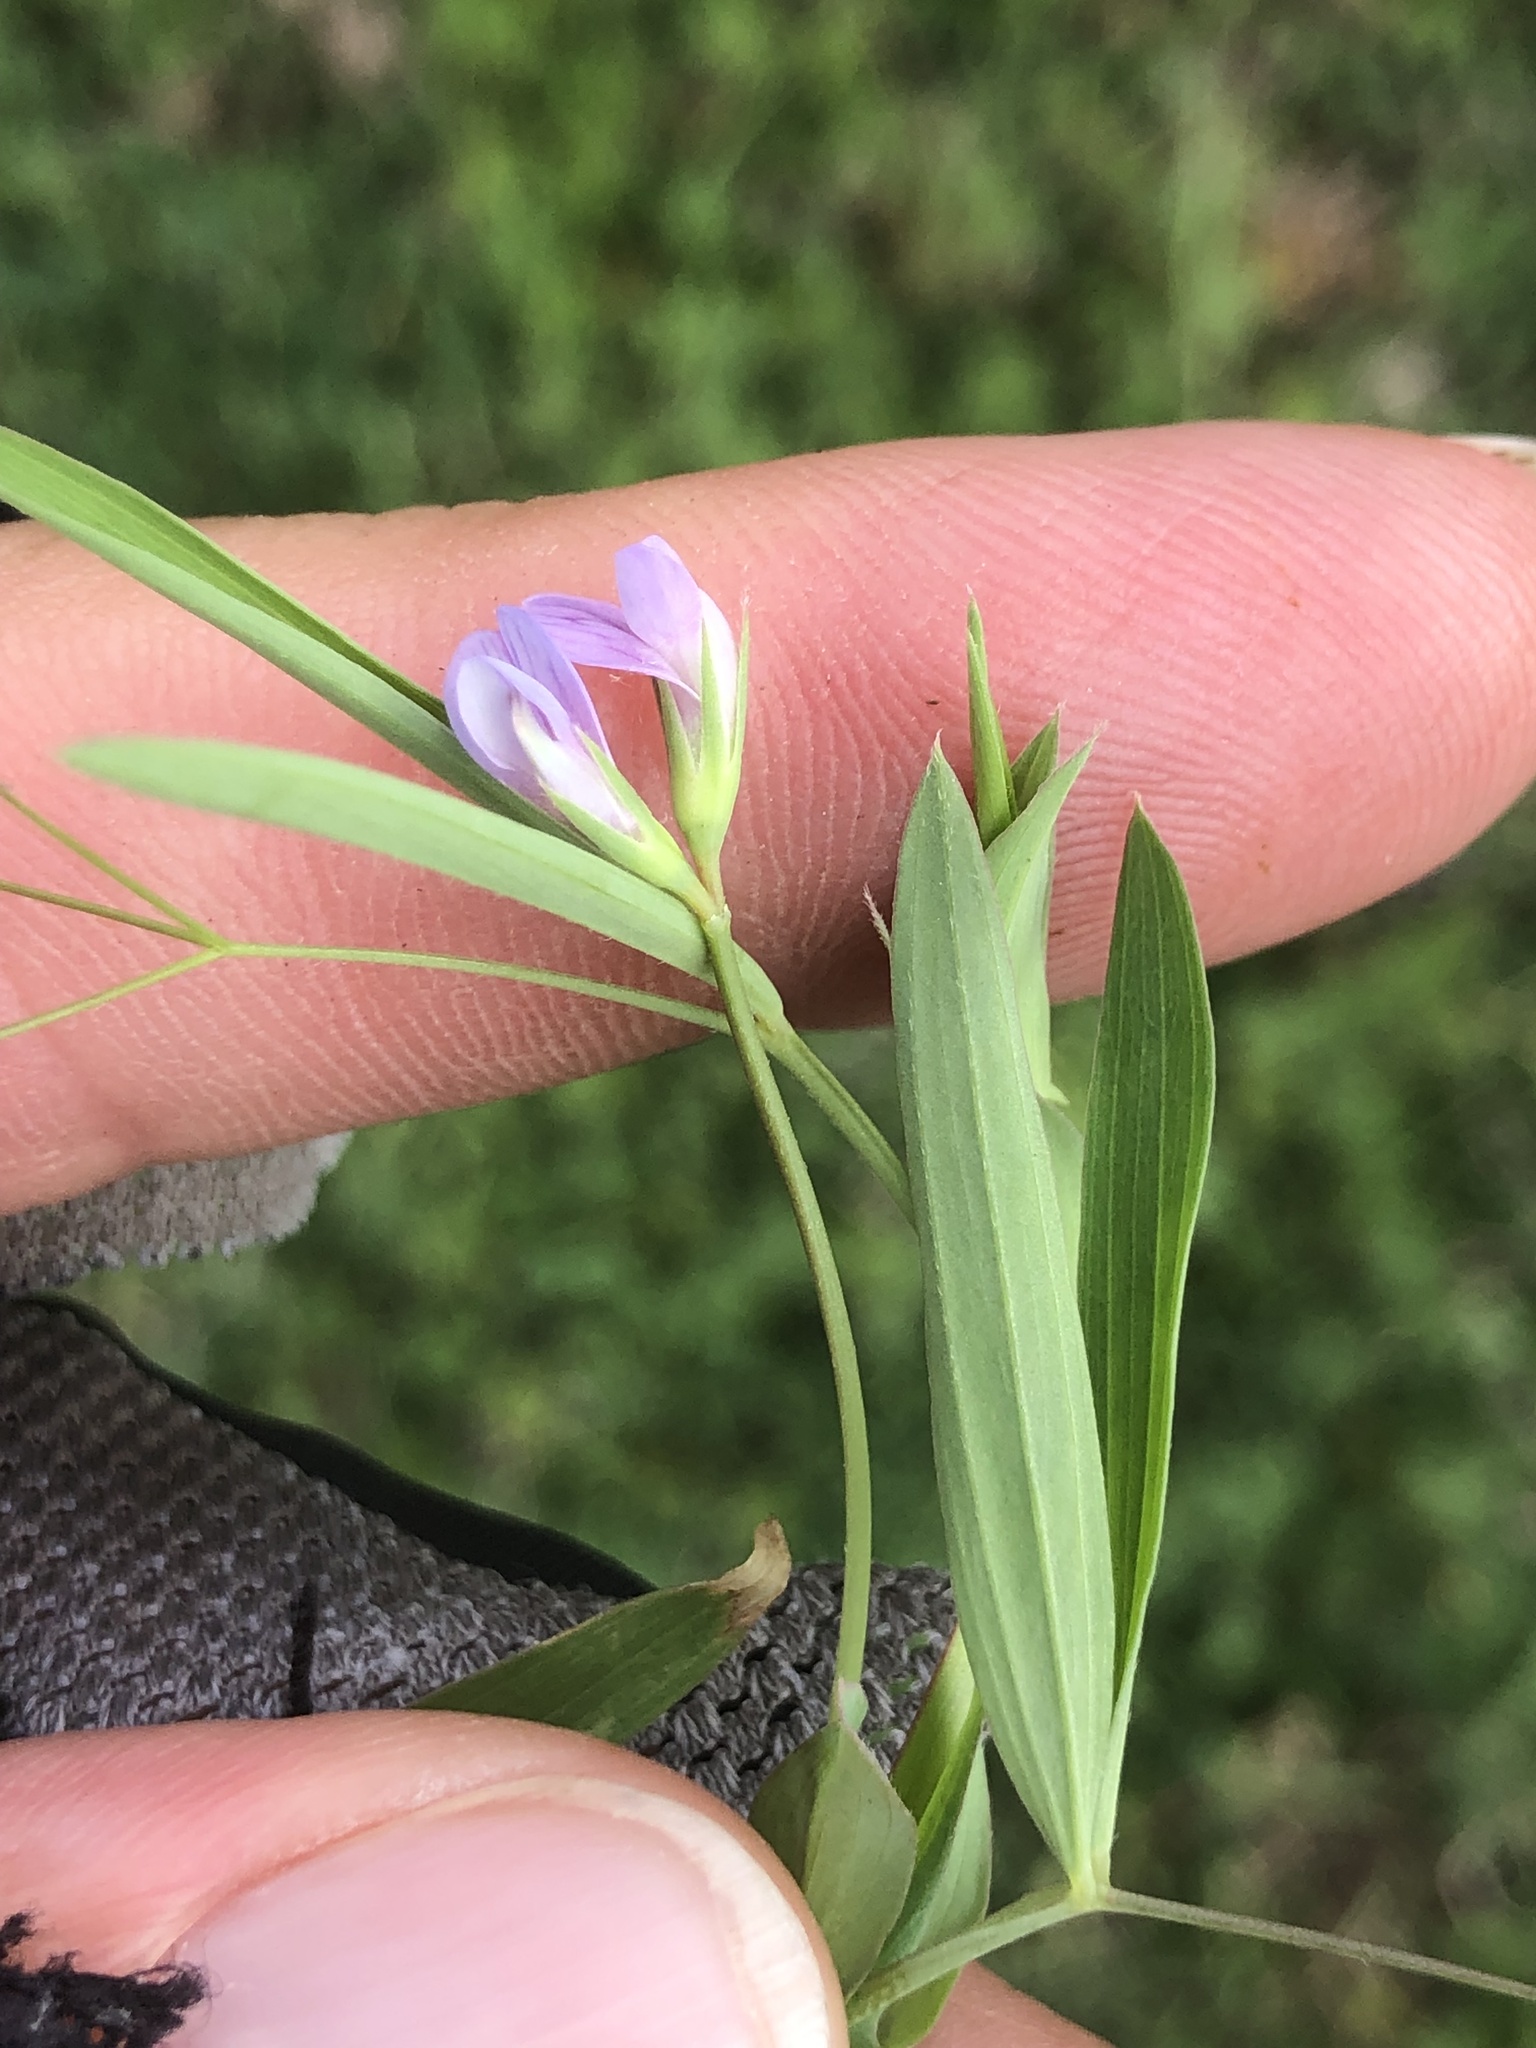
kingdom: Plantae
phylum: Tracheophyta
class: Magnoliopsida
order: Fabales
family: Fabaceae
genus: Lathyrus
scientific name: Lathyrus pusillus
